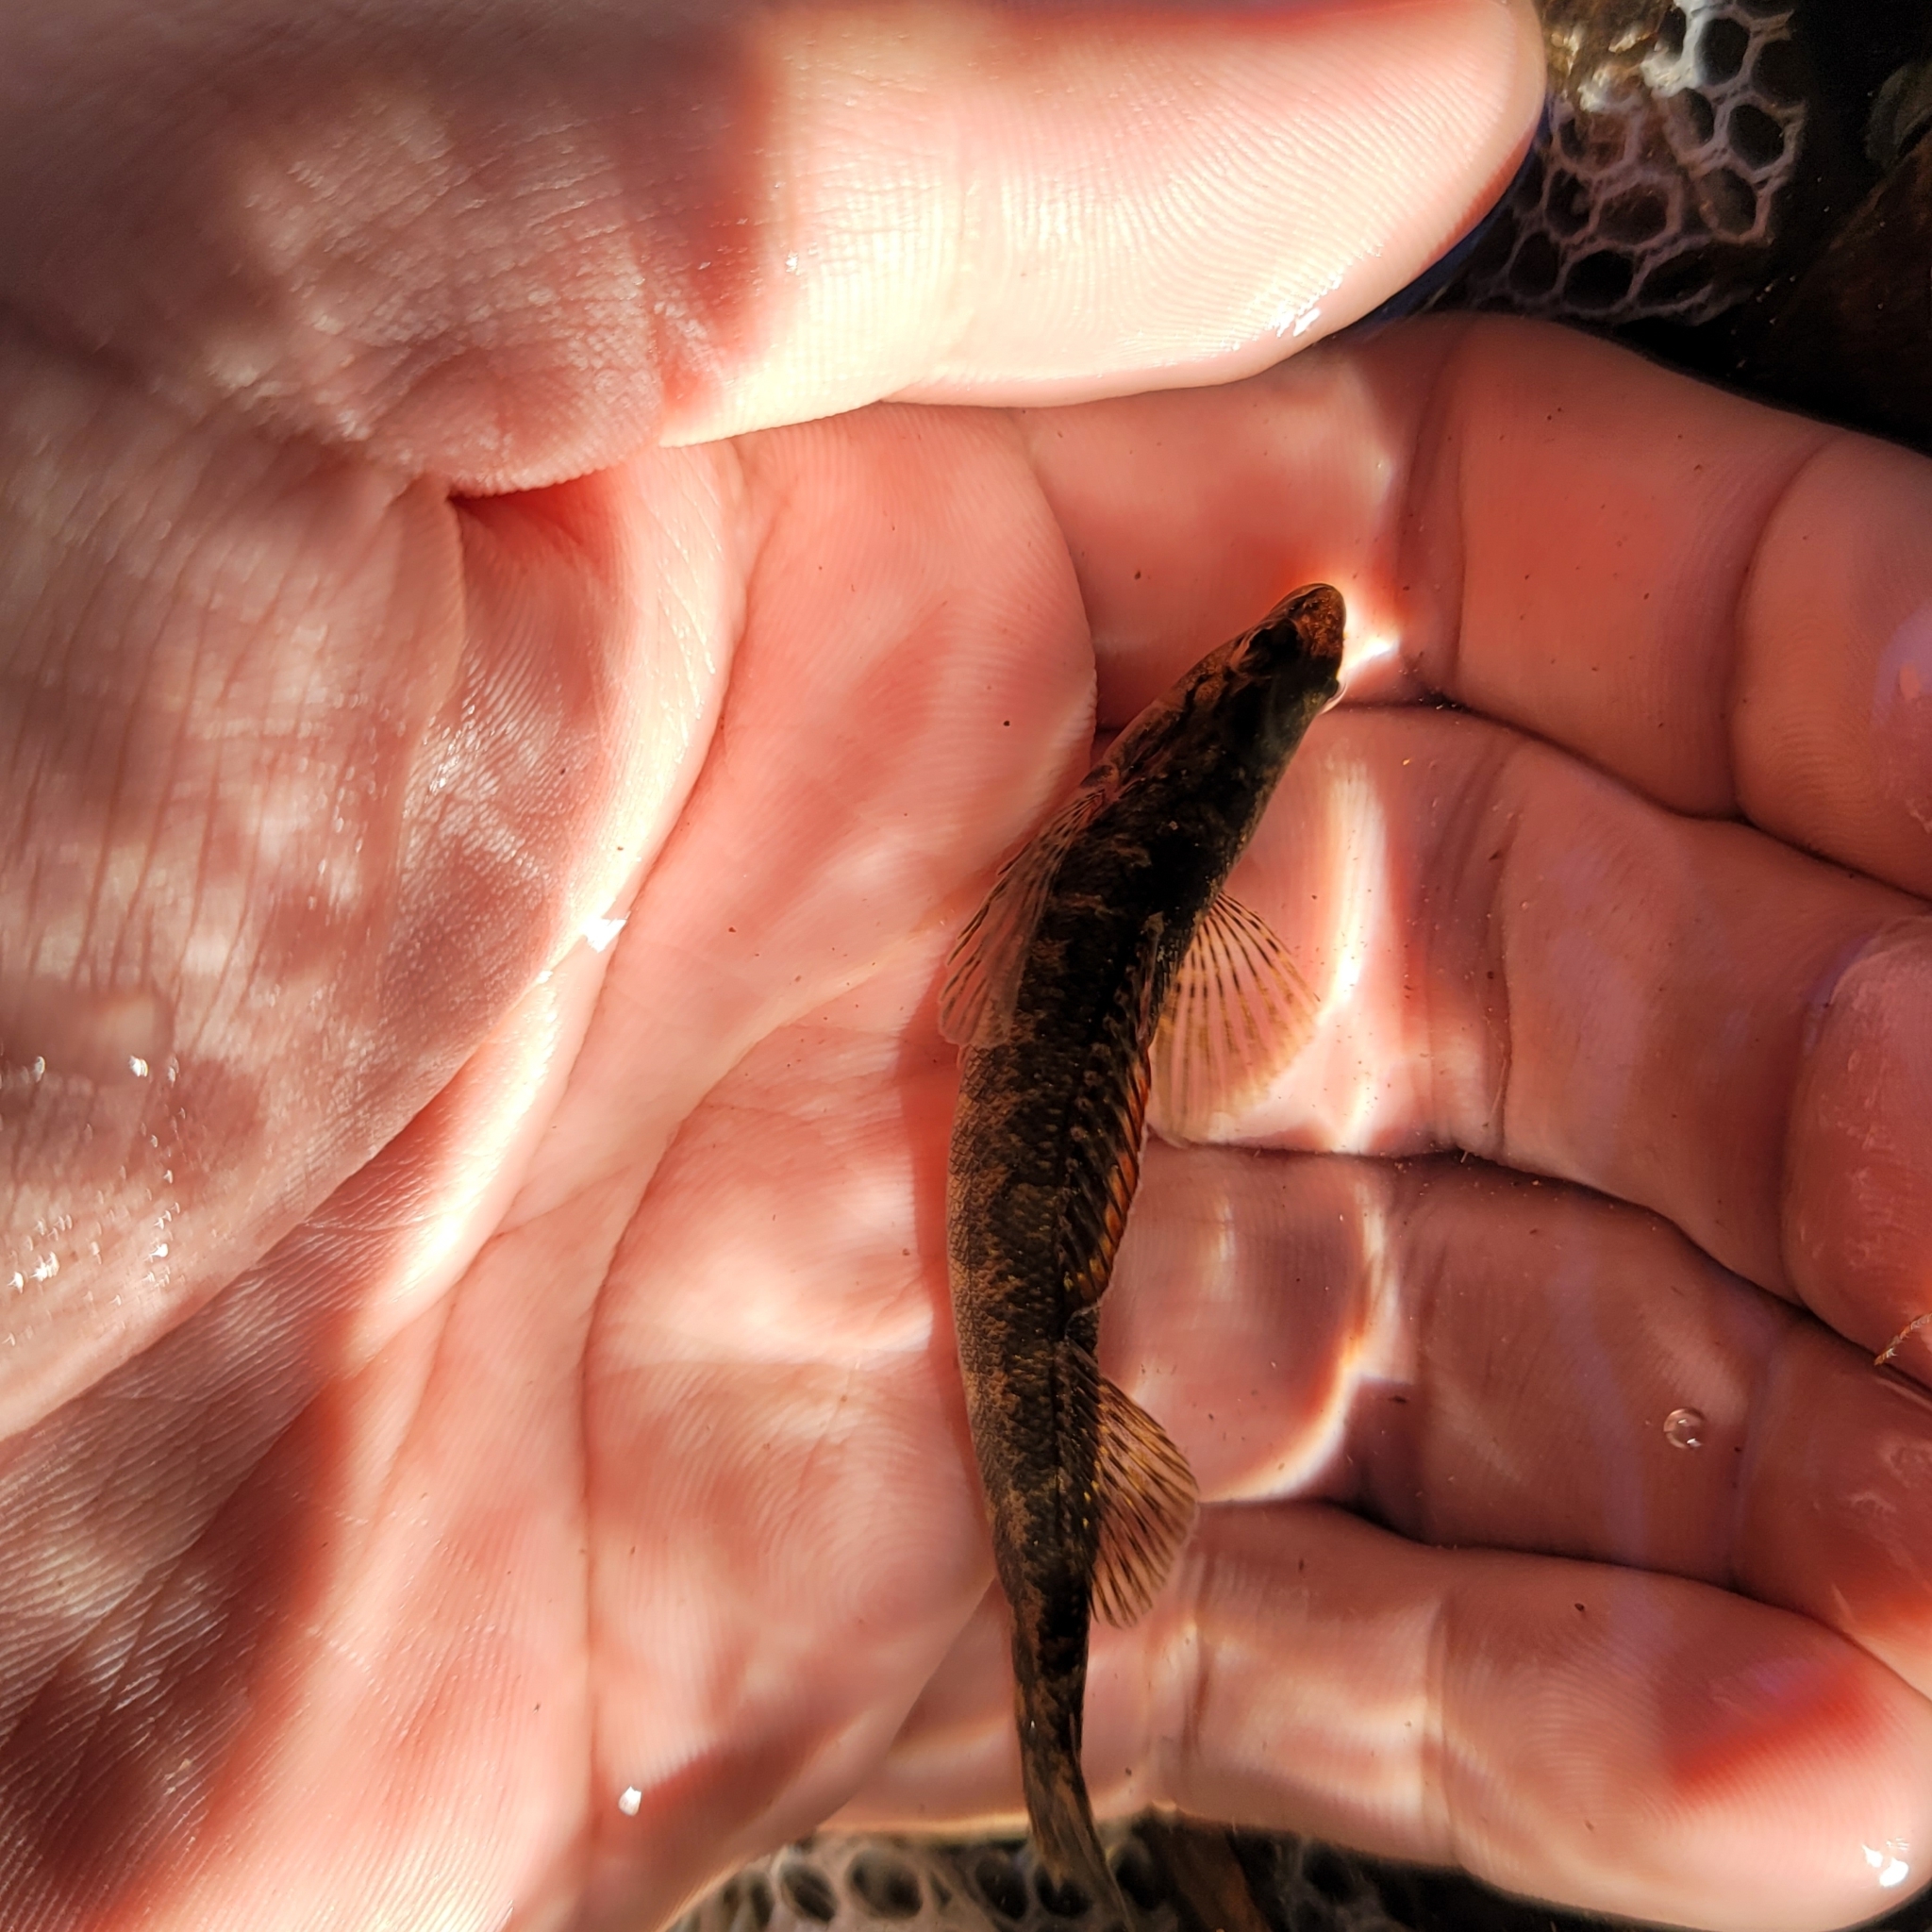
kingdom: Animalia
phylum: Chordata
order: Perciformes
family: Percidae
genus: Percina
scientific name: Percina palmaris
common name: Bronze darter
